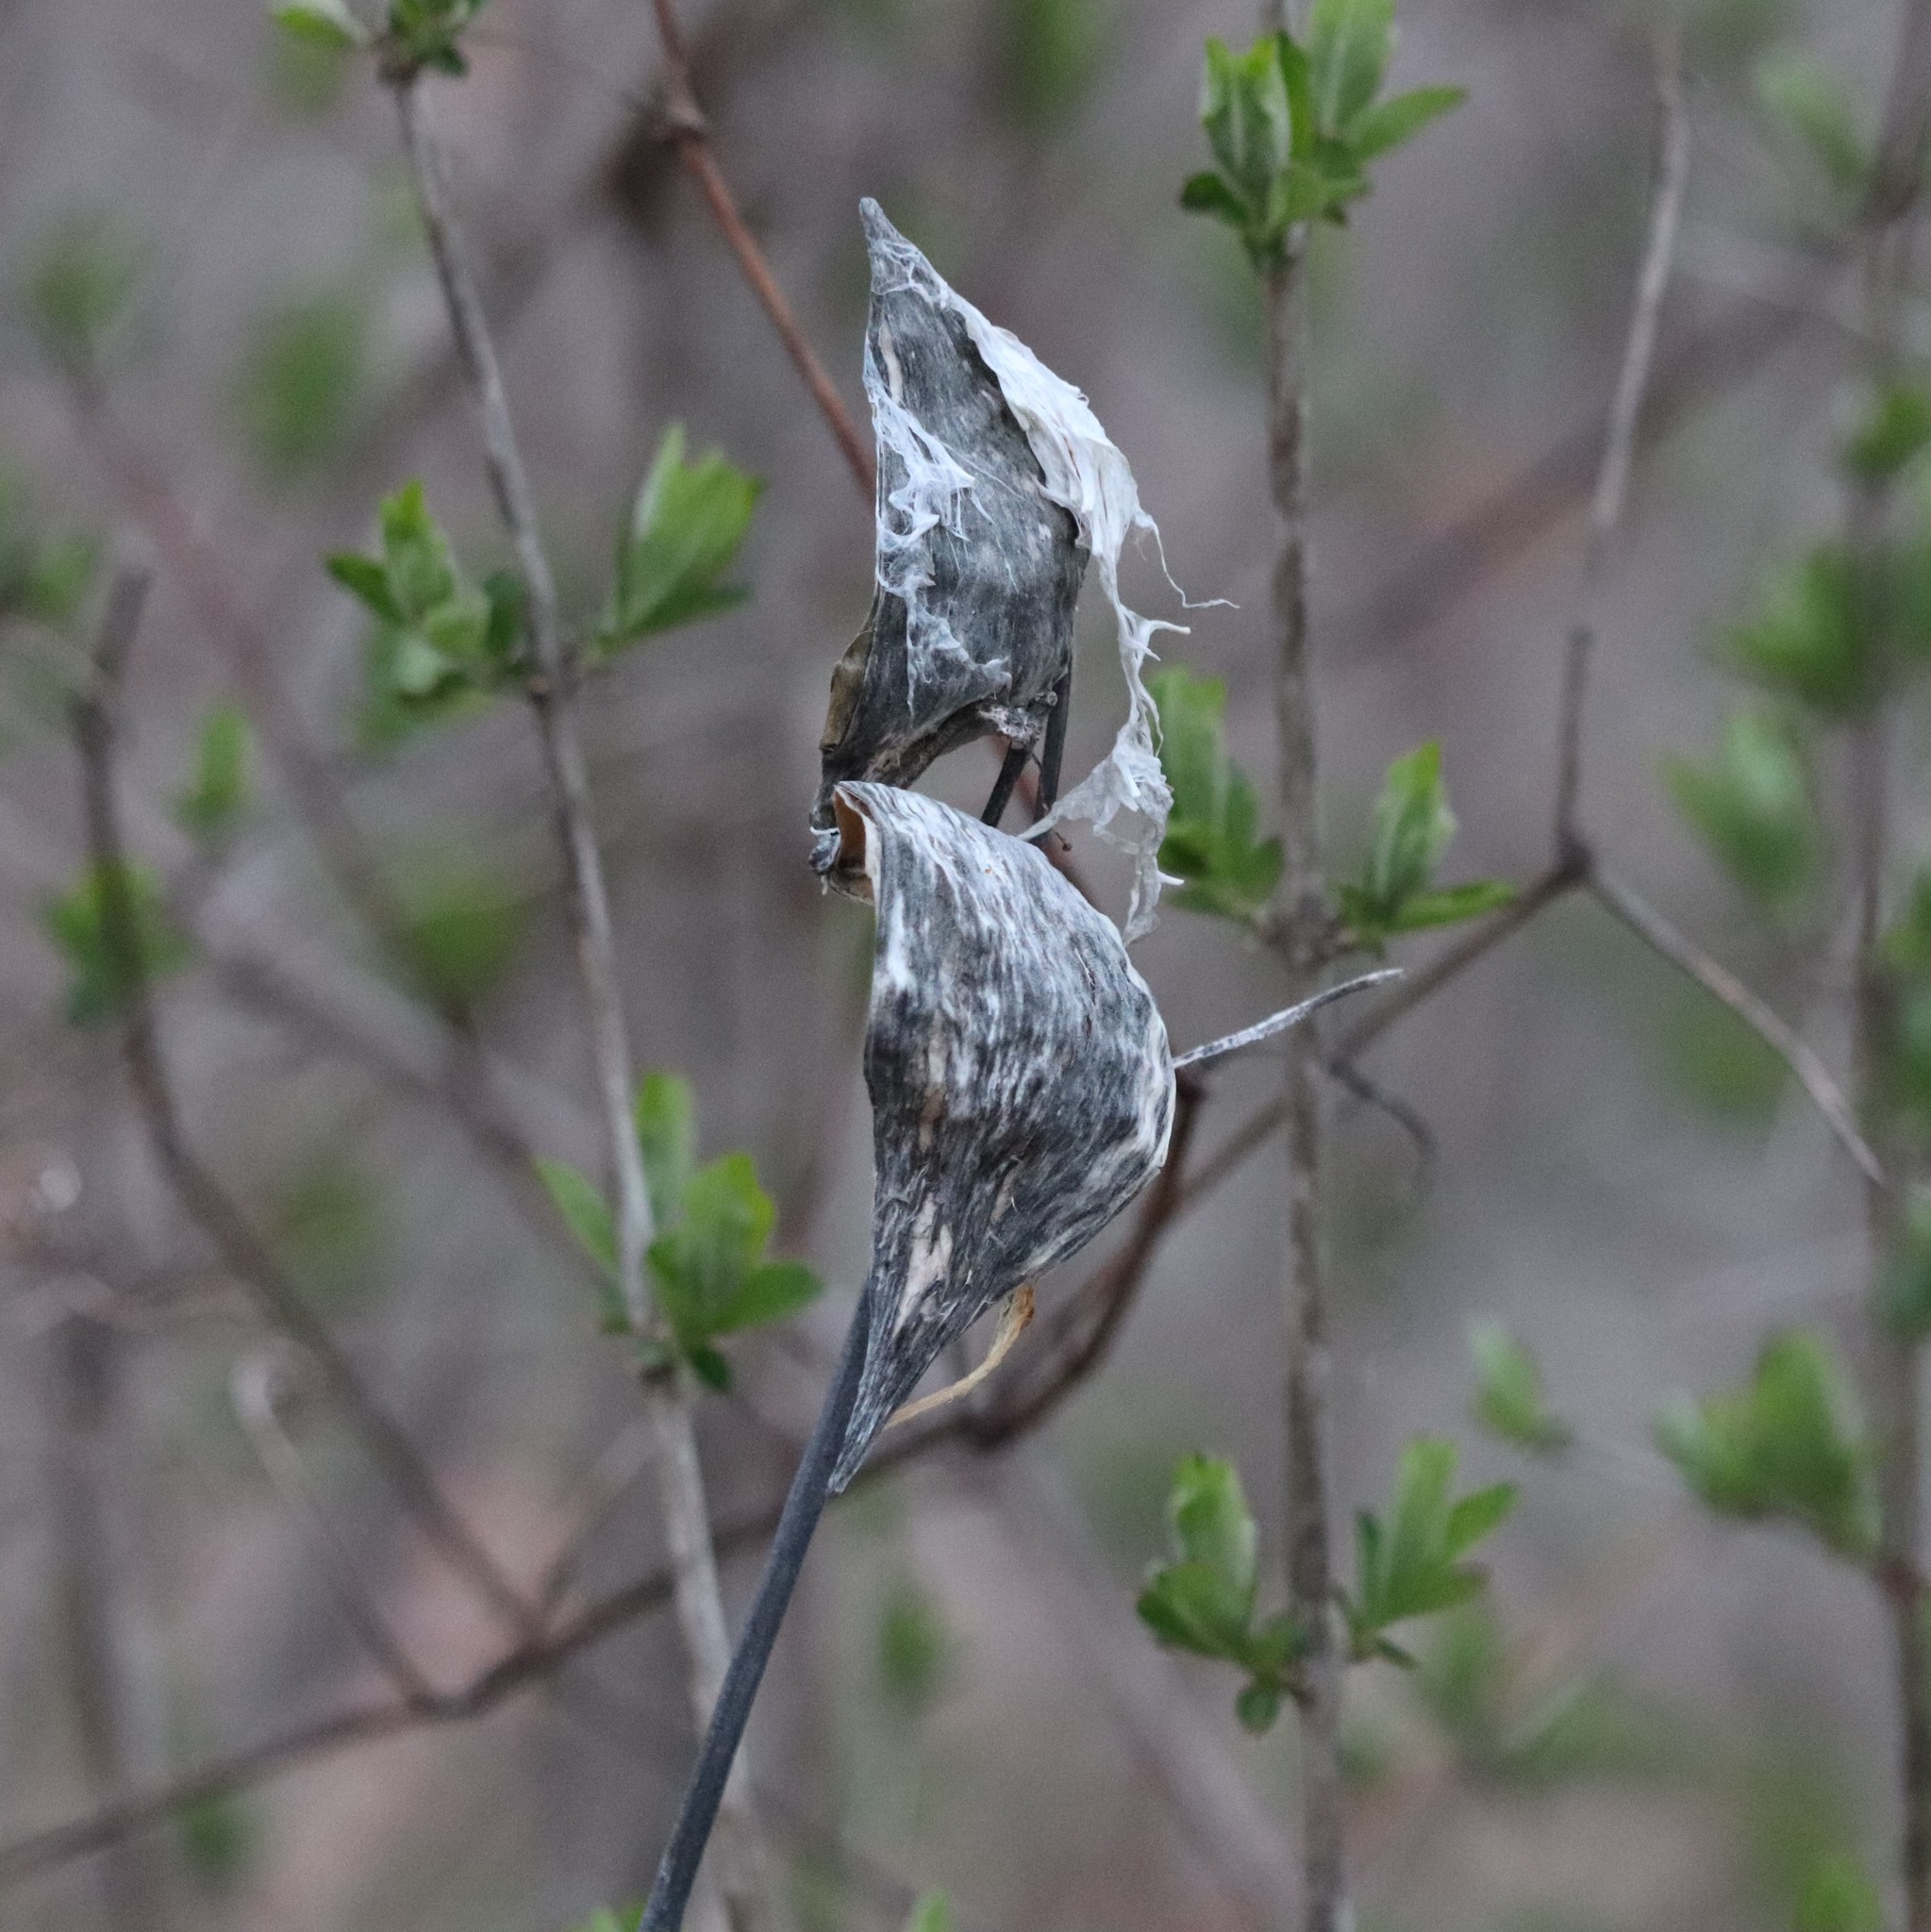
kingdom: Plantae
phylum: Tracheophyta
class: Magnoliopsida
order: Gentianales
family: Apocynaceae
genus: Asclepias
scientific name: Asclepias syriaca
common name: Common milkweed
